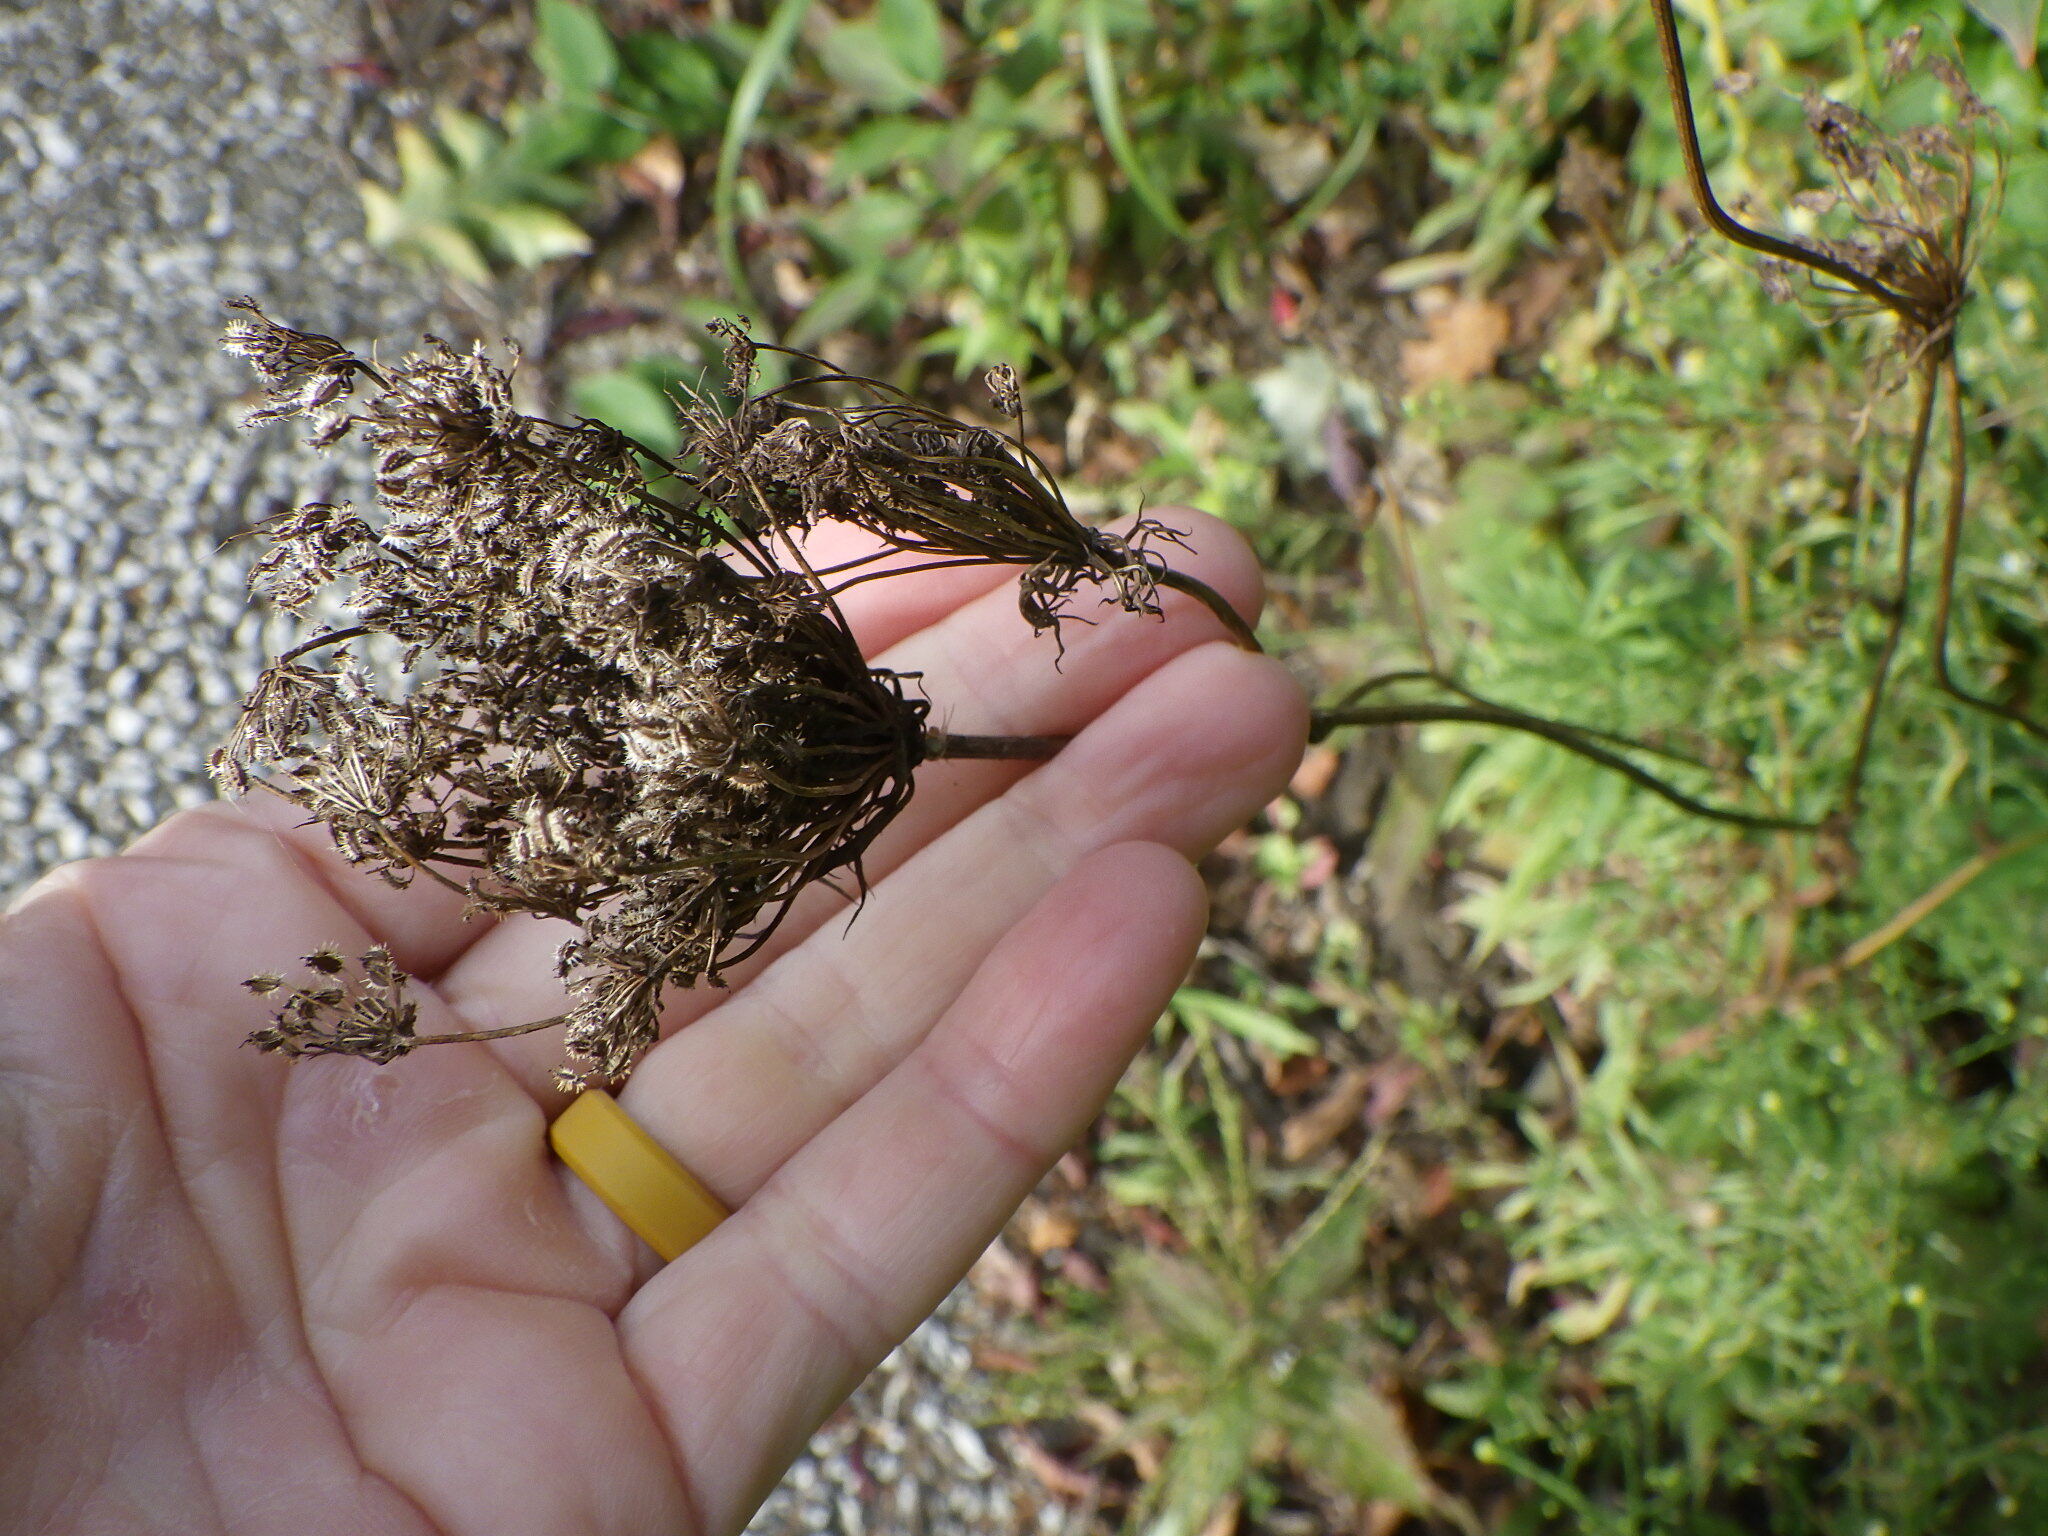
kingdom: Plantae
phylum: Tracheophyta
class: Magnoliopsida
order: Apiales
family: Apiaceae
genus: Daucus
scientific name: Daucus carota
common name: Wild carrot
